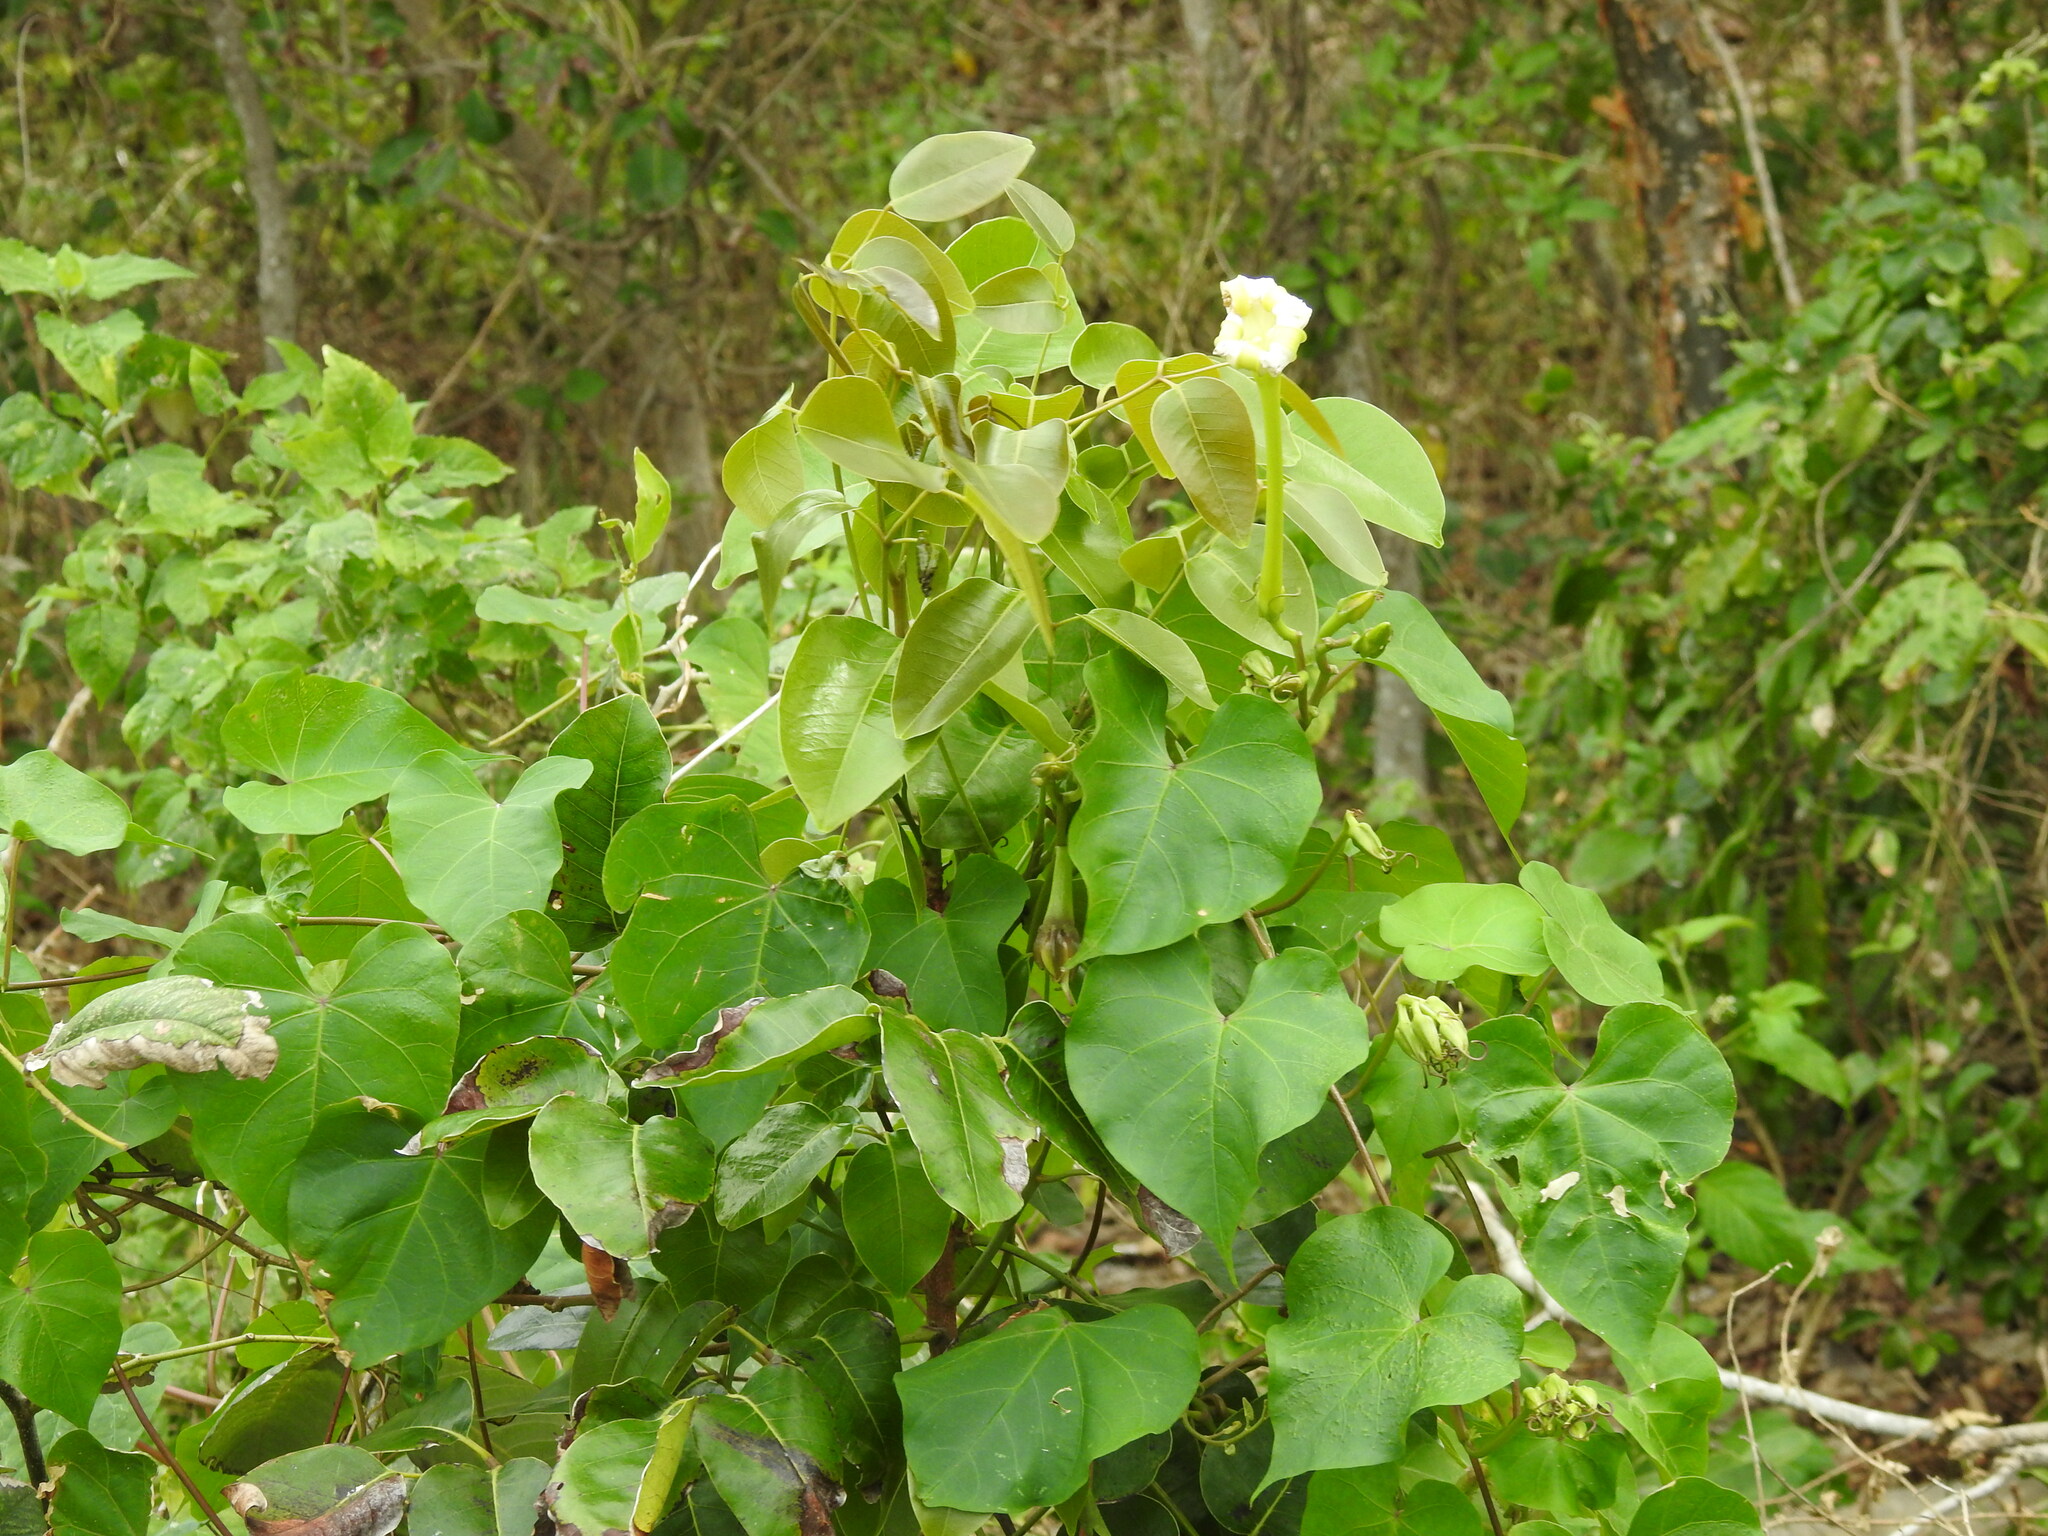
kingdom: Plantae
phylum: Tracheophyta
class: Magnoliopsida
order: Solanales
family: Convolvulaceae
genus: Ipomoea
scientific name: Ipomoea alba
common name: Moonflower
